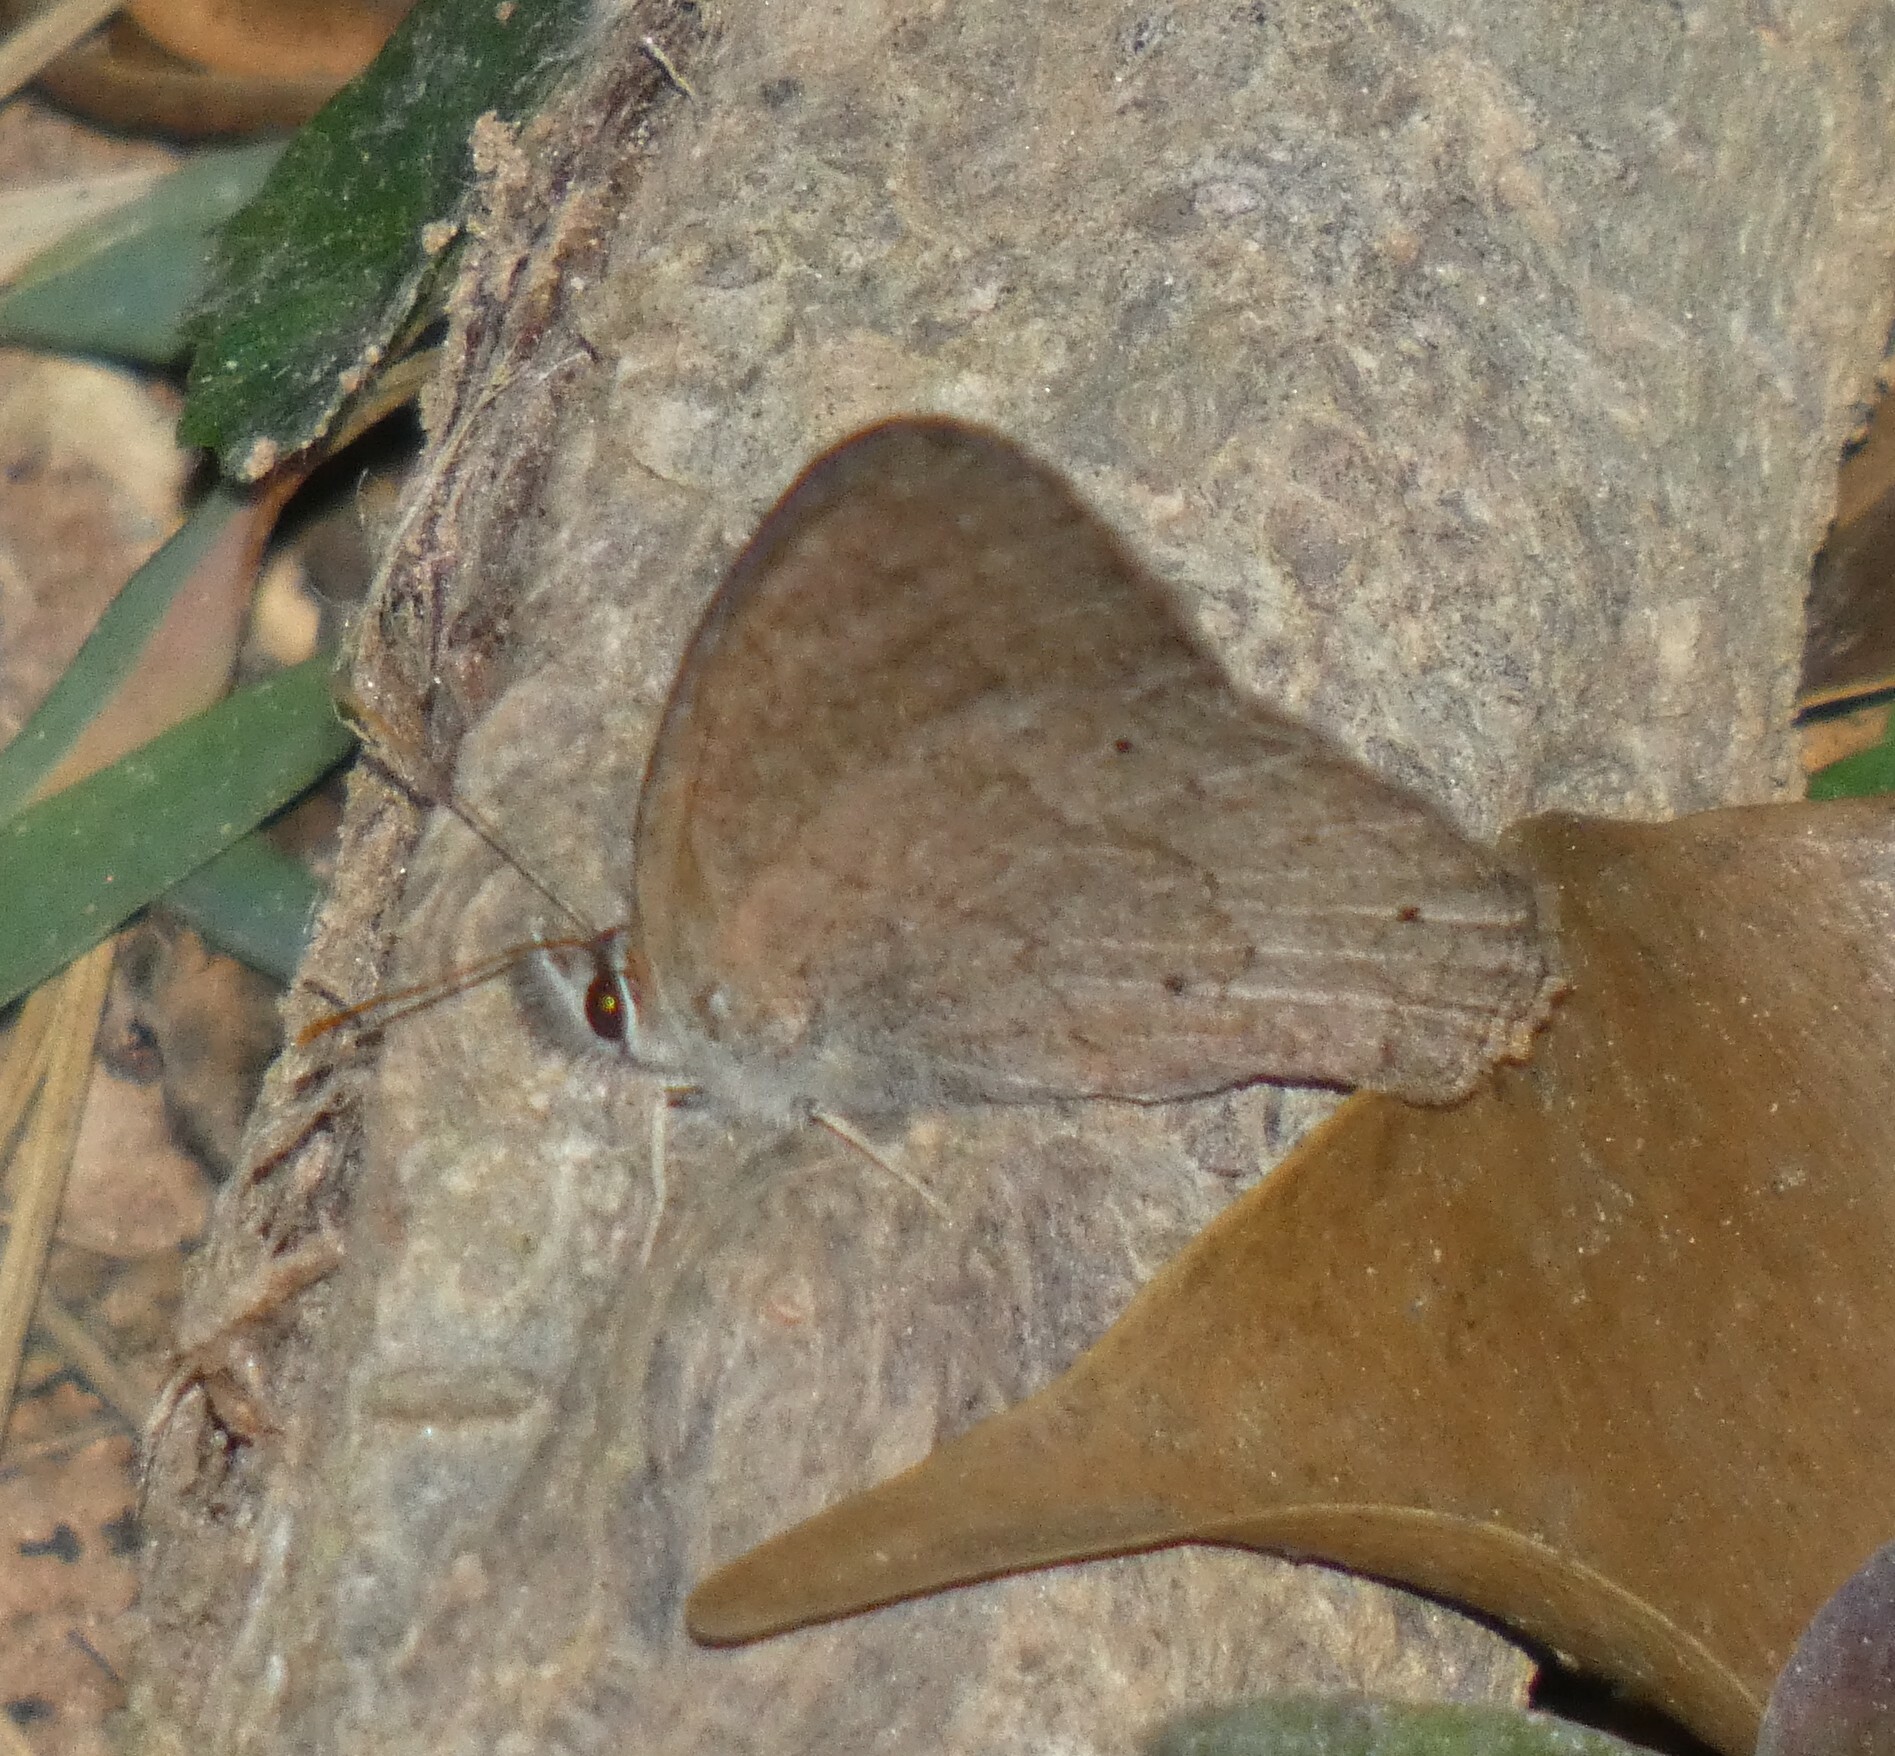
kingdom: Animalia
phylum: Arthropoda
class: Insecta
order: Lepidoptera
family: Nymphalidae
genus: Euptychia
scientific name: Euptychia Cissia eous
